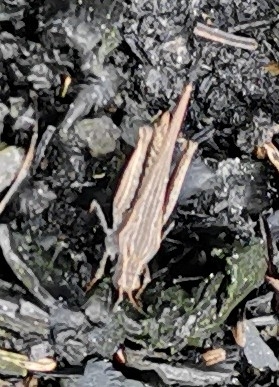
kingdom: Animalia
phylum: Arthropoda
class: Insecta
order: Orthoptera
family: Tetrigidae
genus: Tetrix
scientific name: Tetrix subulata
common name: Slender ground-hopper
